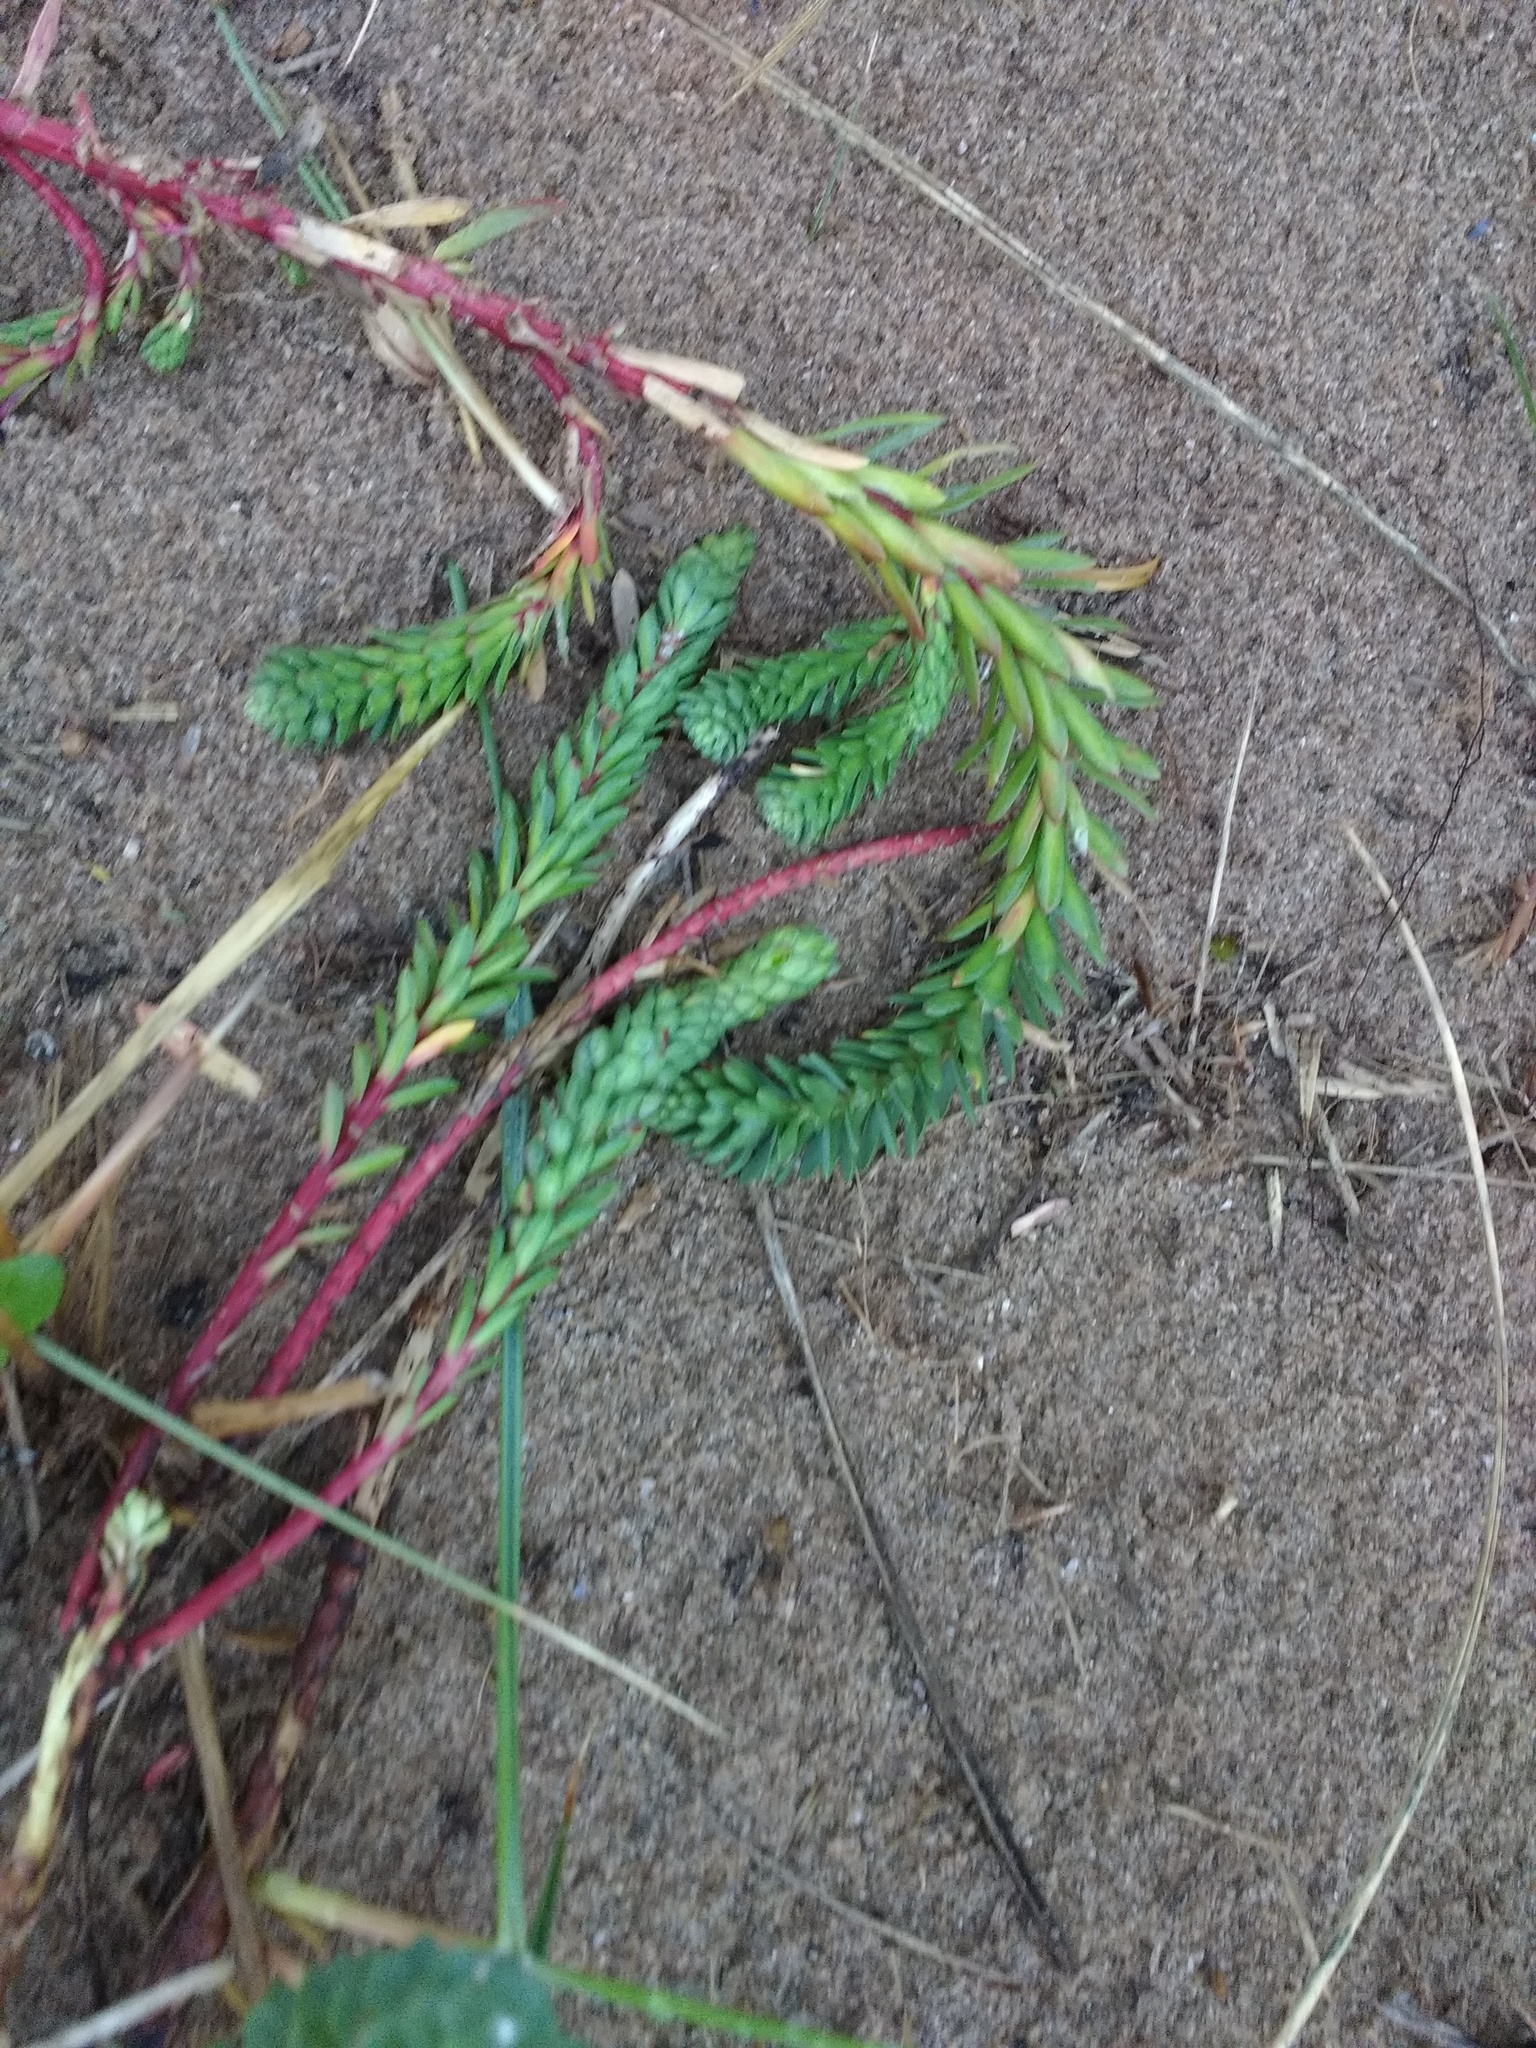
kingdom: Plantae
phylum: Tracheophyta
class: Magnoliopsida
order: Malpighiales
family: Euphorbiaceae
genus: Euphorbia
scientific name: Euphorbia paralias
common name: Sea spurge
